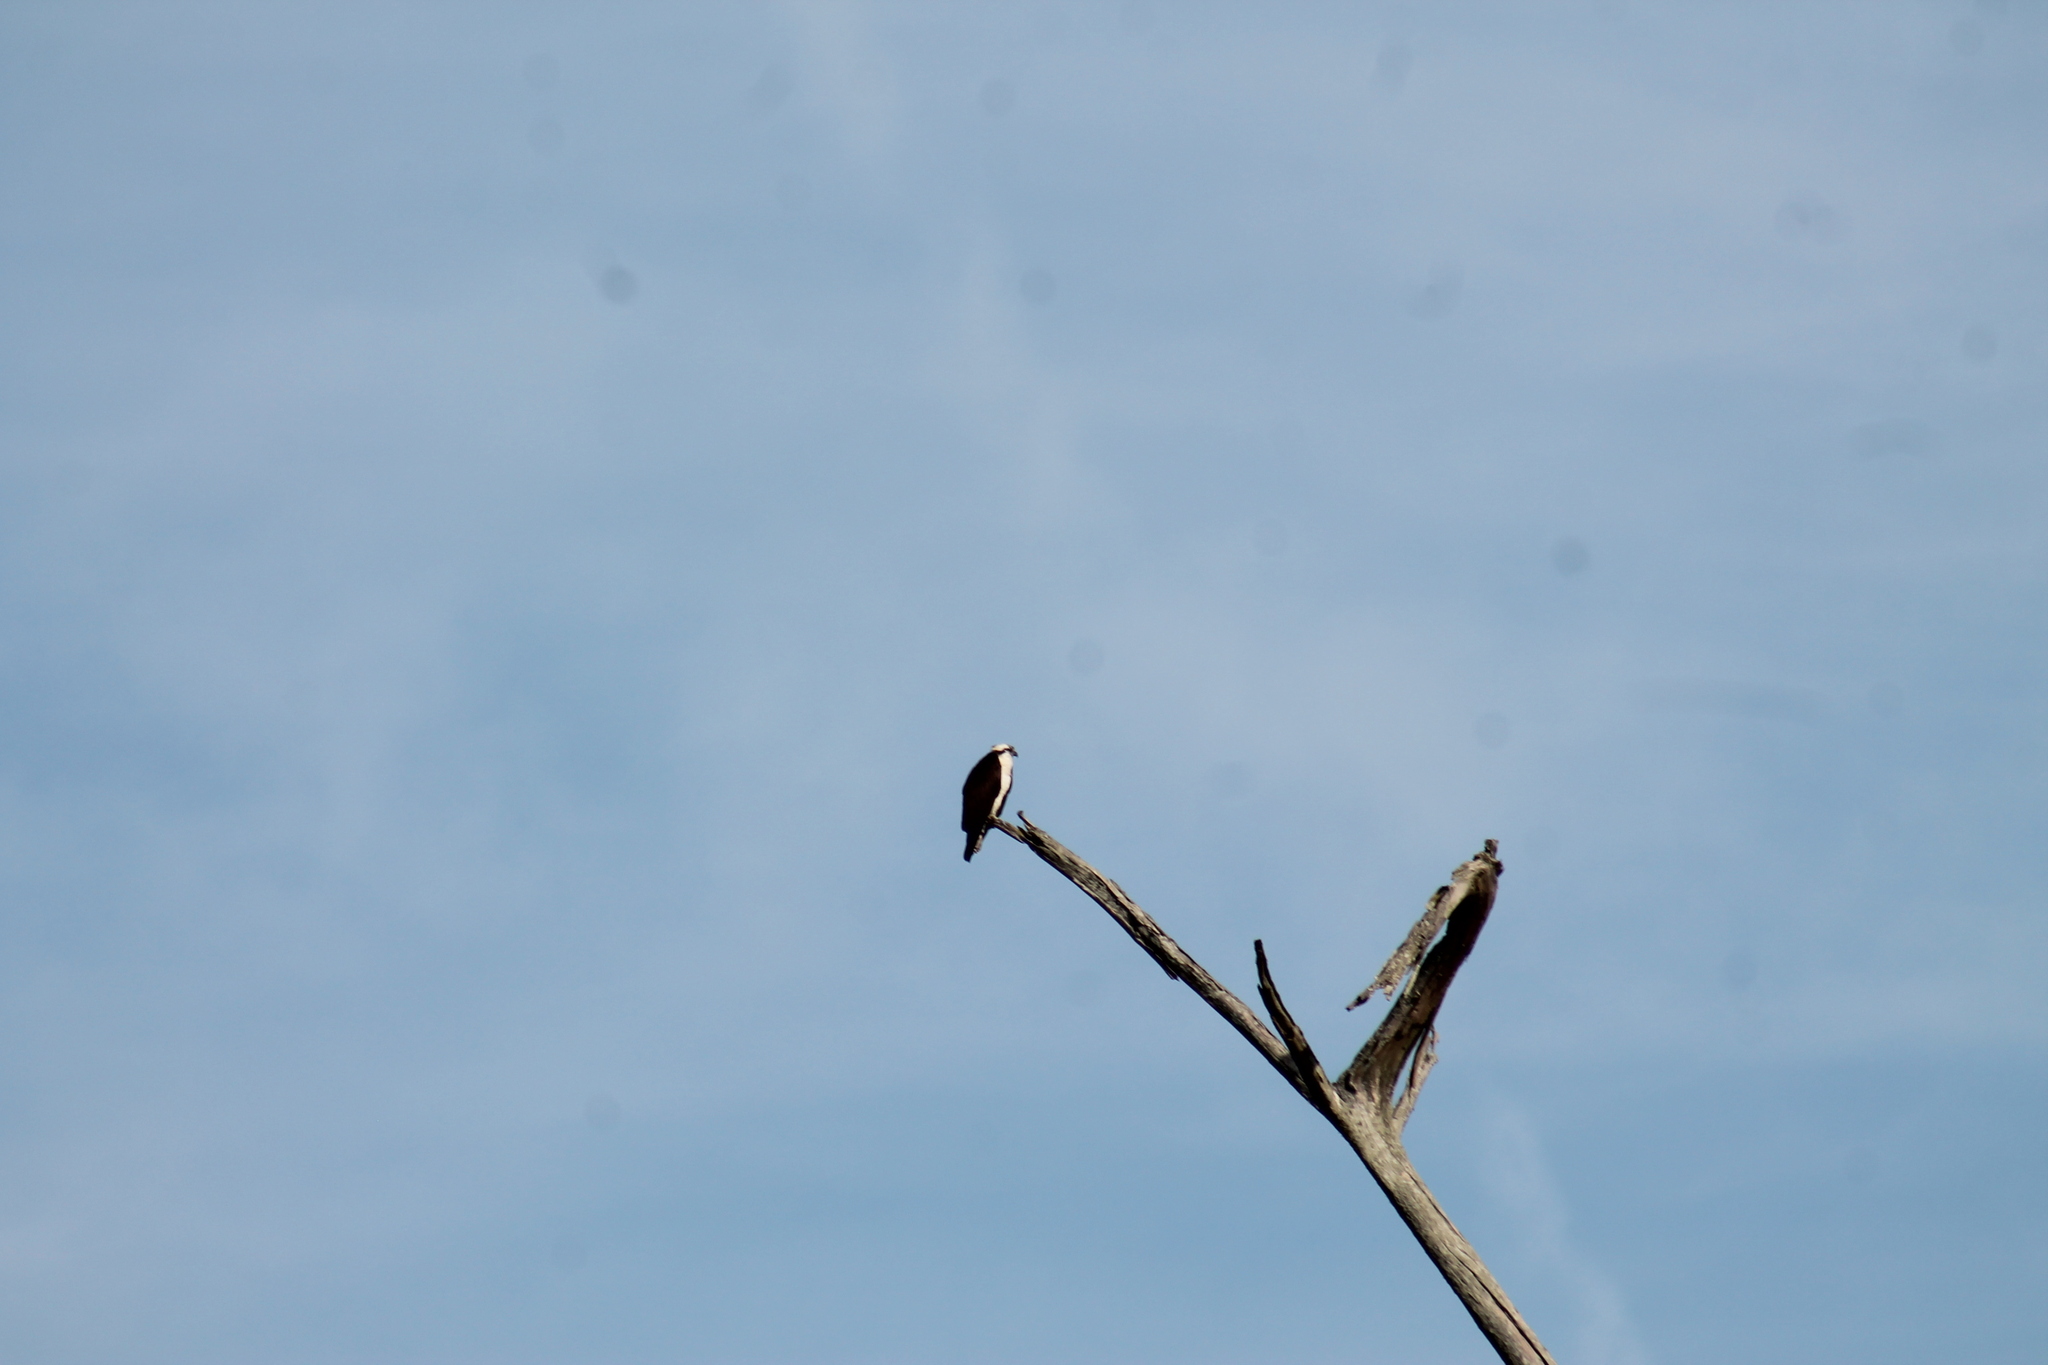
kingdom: Animalia
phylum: Chordata
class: Aves
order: Accipitriformes
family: Pandionidae
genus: Pandion
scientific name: Pandion haliaetus
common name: Osprey
